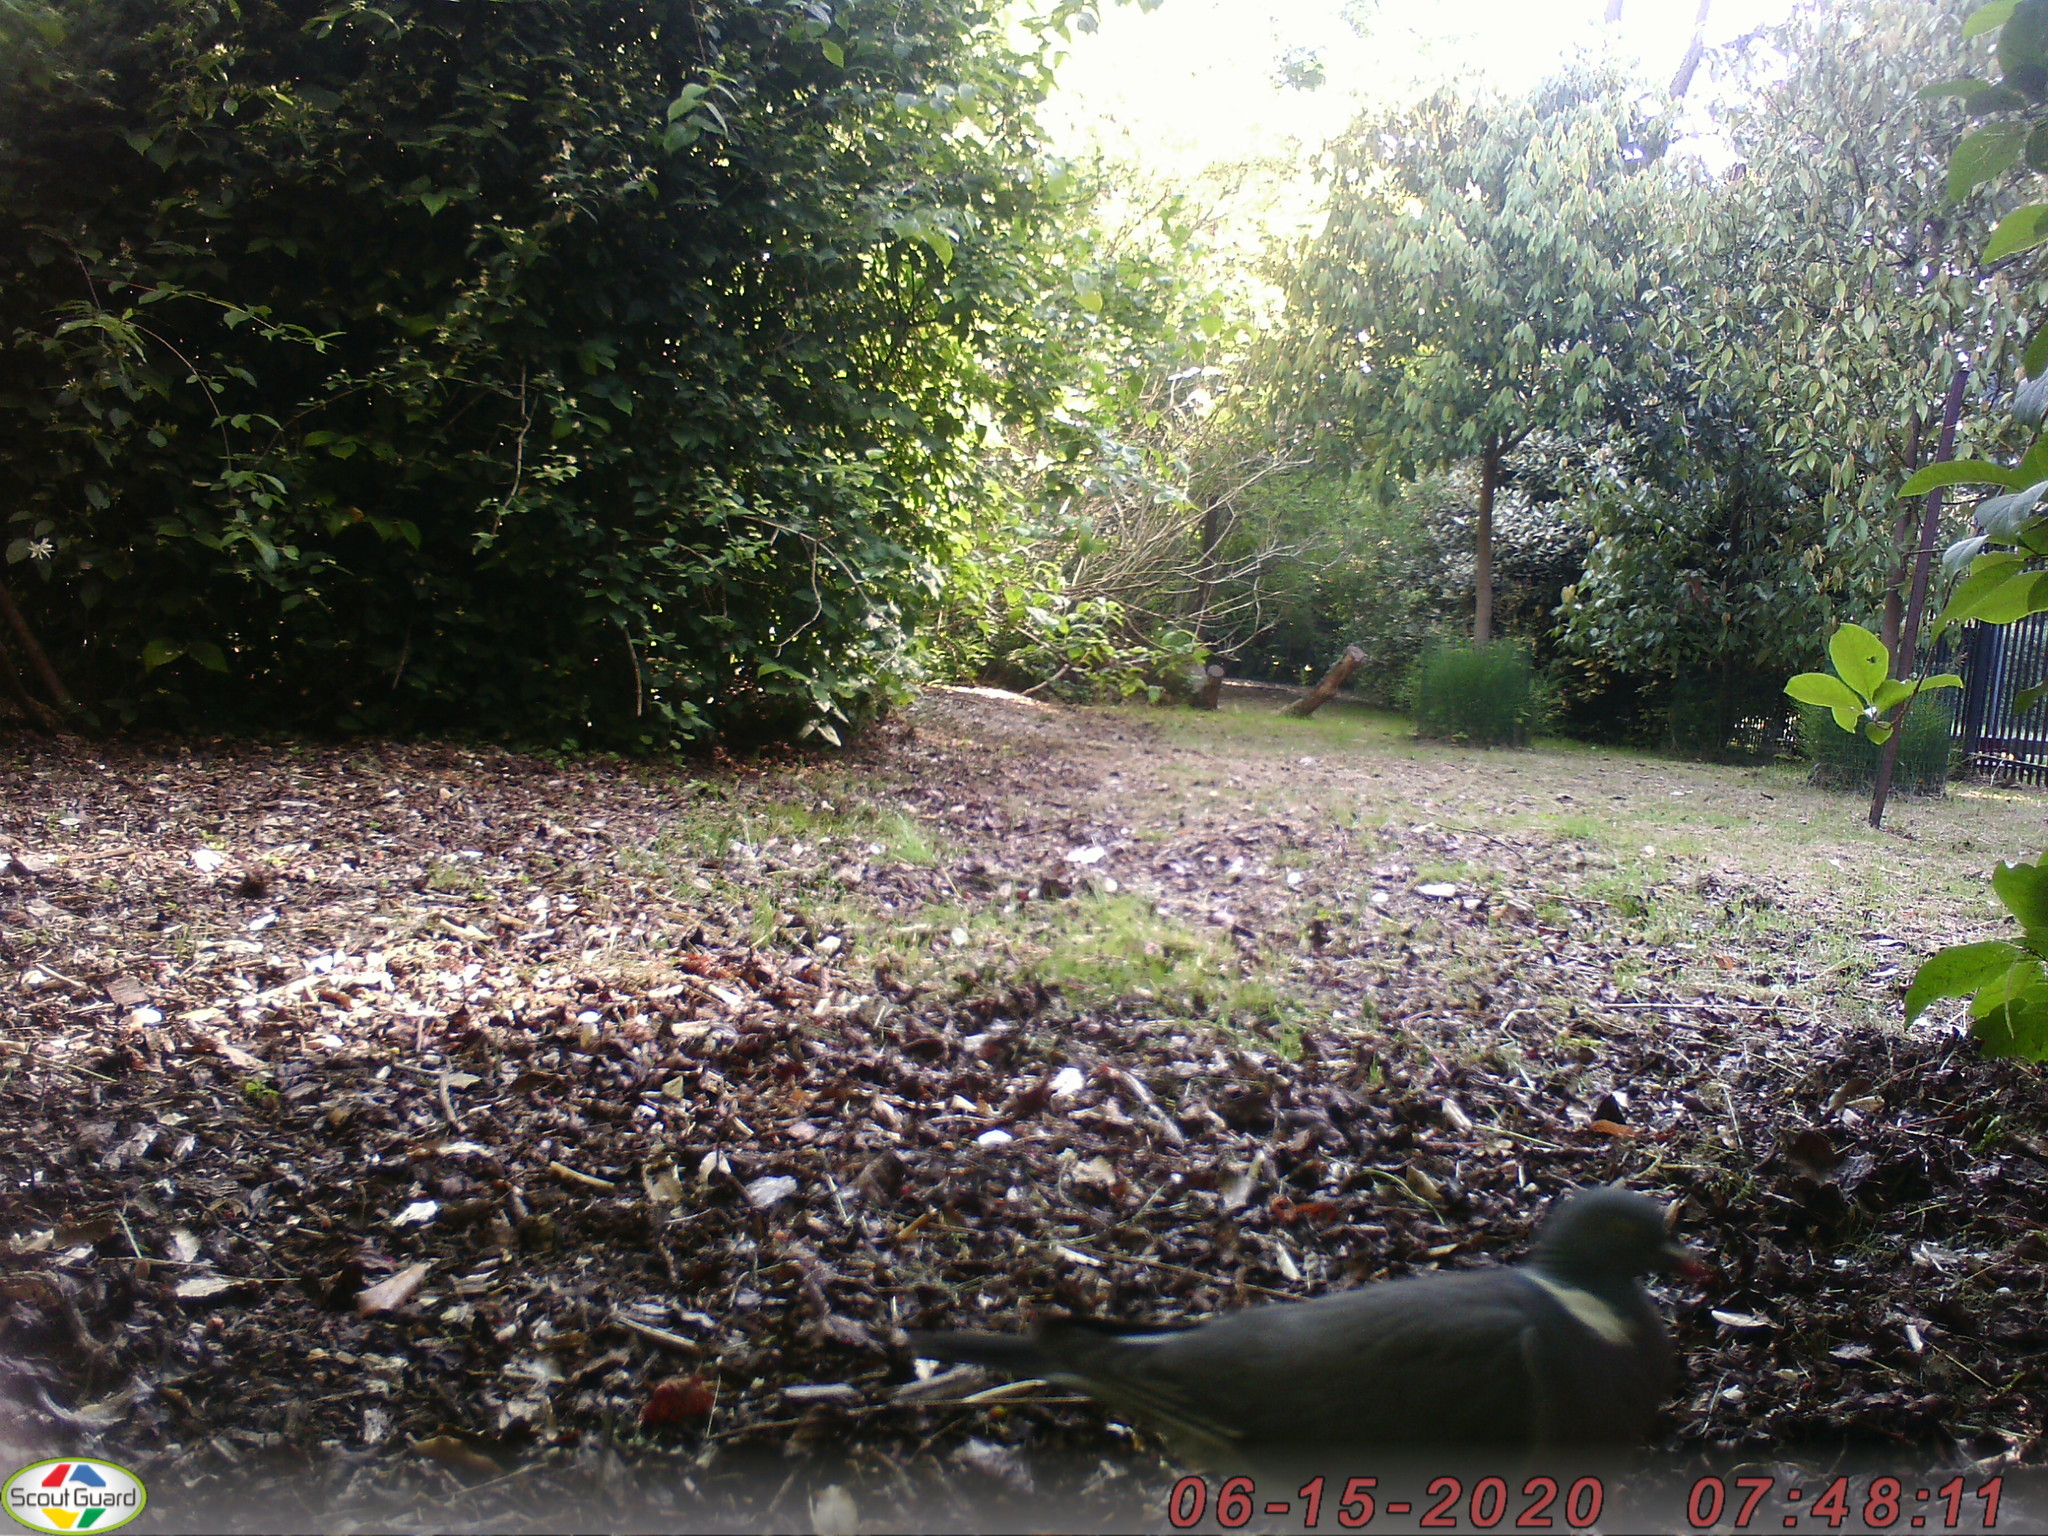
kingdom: Animalia
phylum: Chordata
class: Aves
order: Columbiformes
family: Columbidae
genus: Columba
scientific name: Columba palumbus
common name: Common wood pigeon
